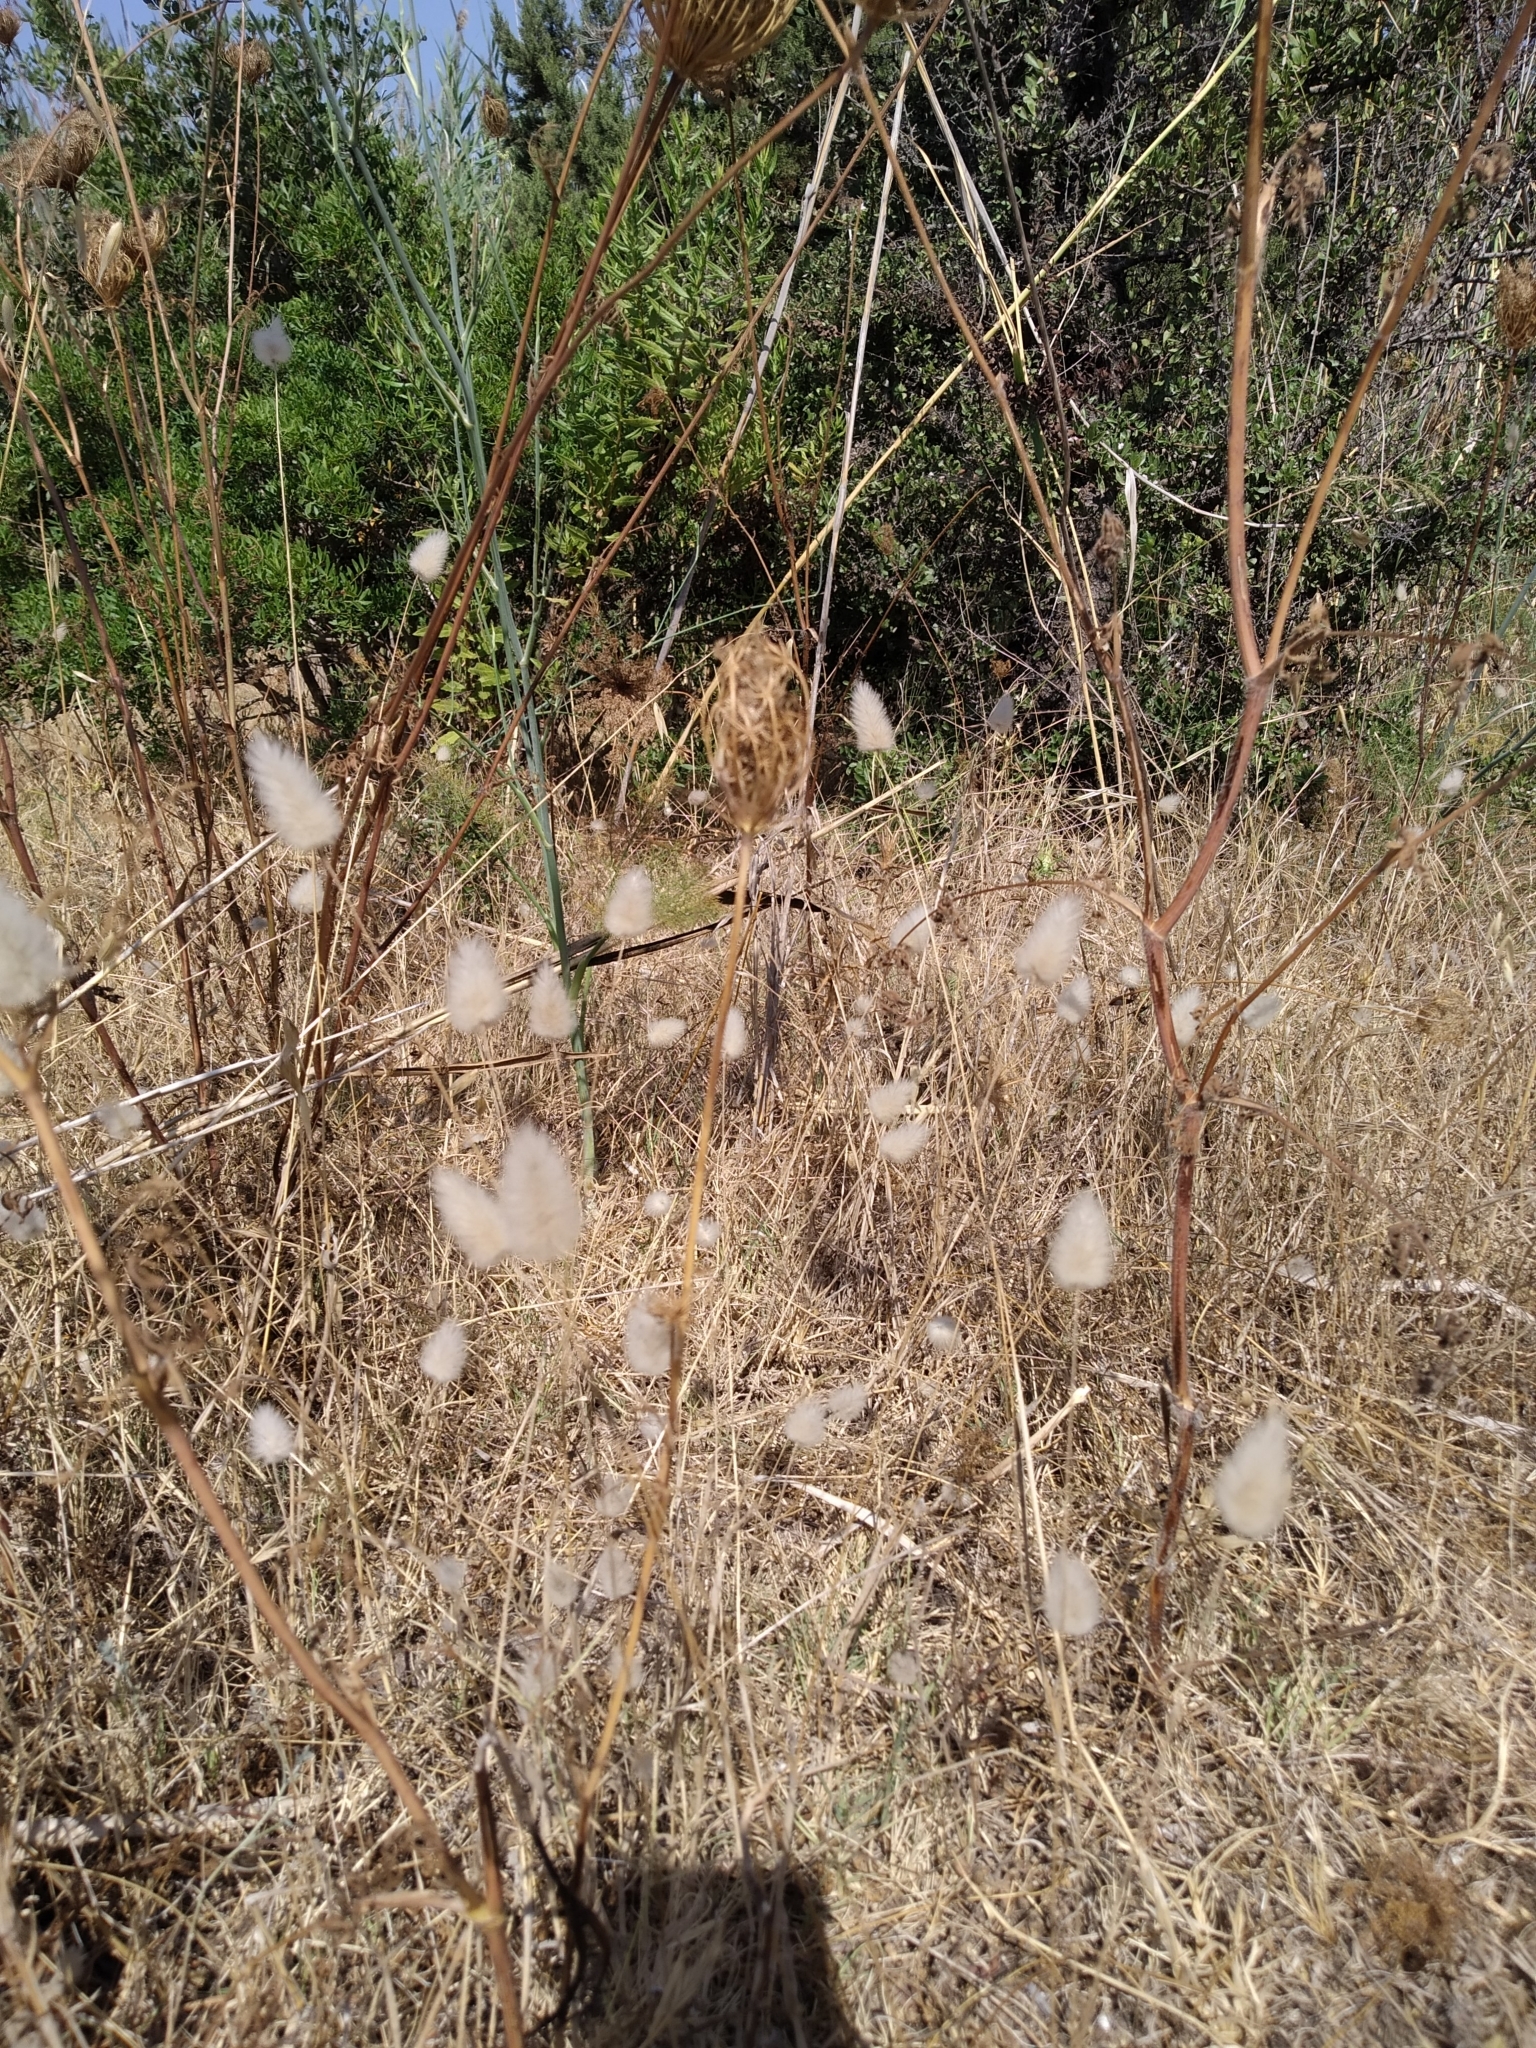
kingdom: Plantae
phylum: Tracheophyta
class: Liliopsida
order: Poales
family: Poaceae
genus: Lagurus
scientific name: Lagurus ovatus
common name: Hare's-tail
